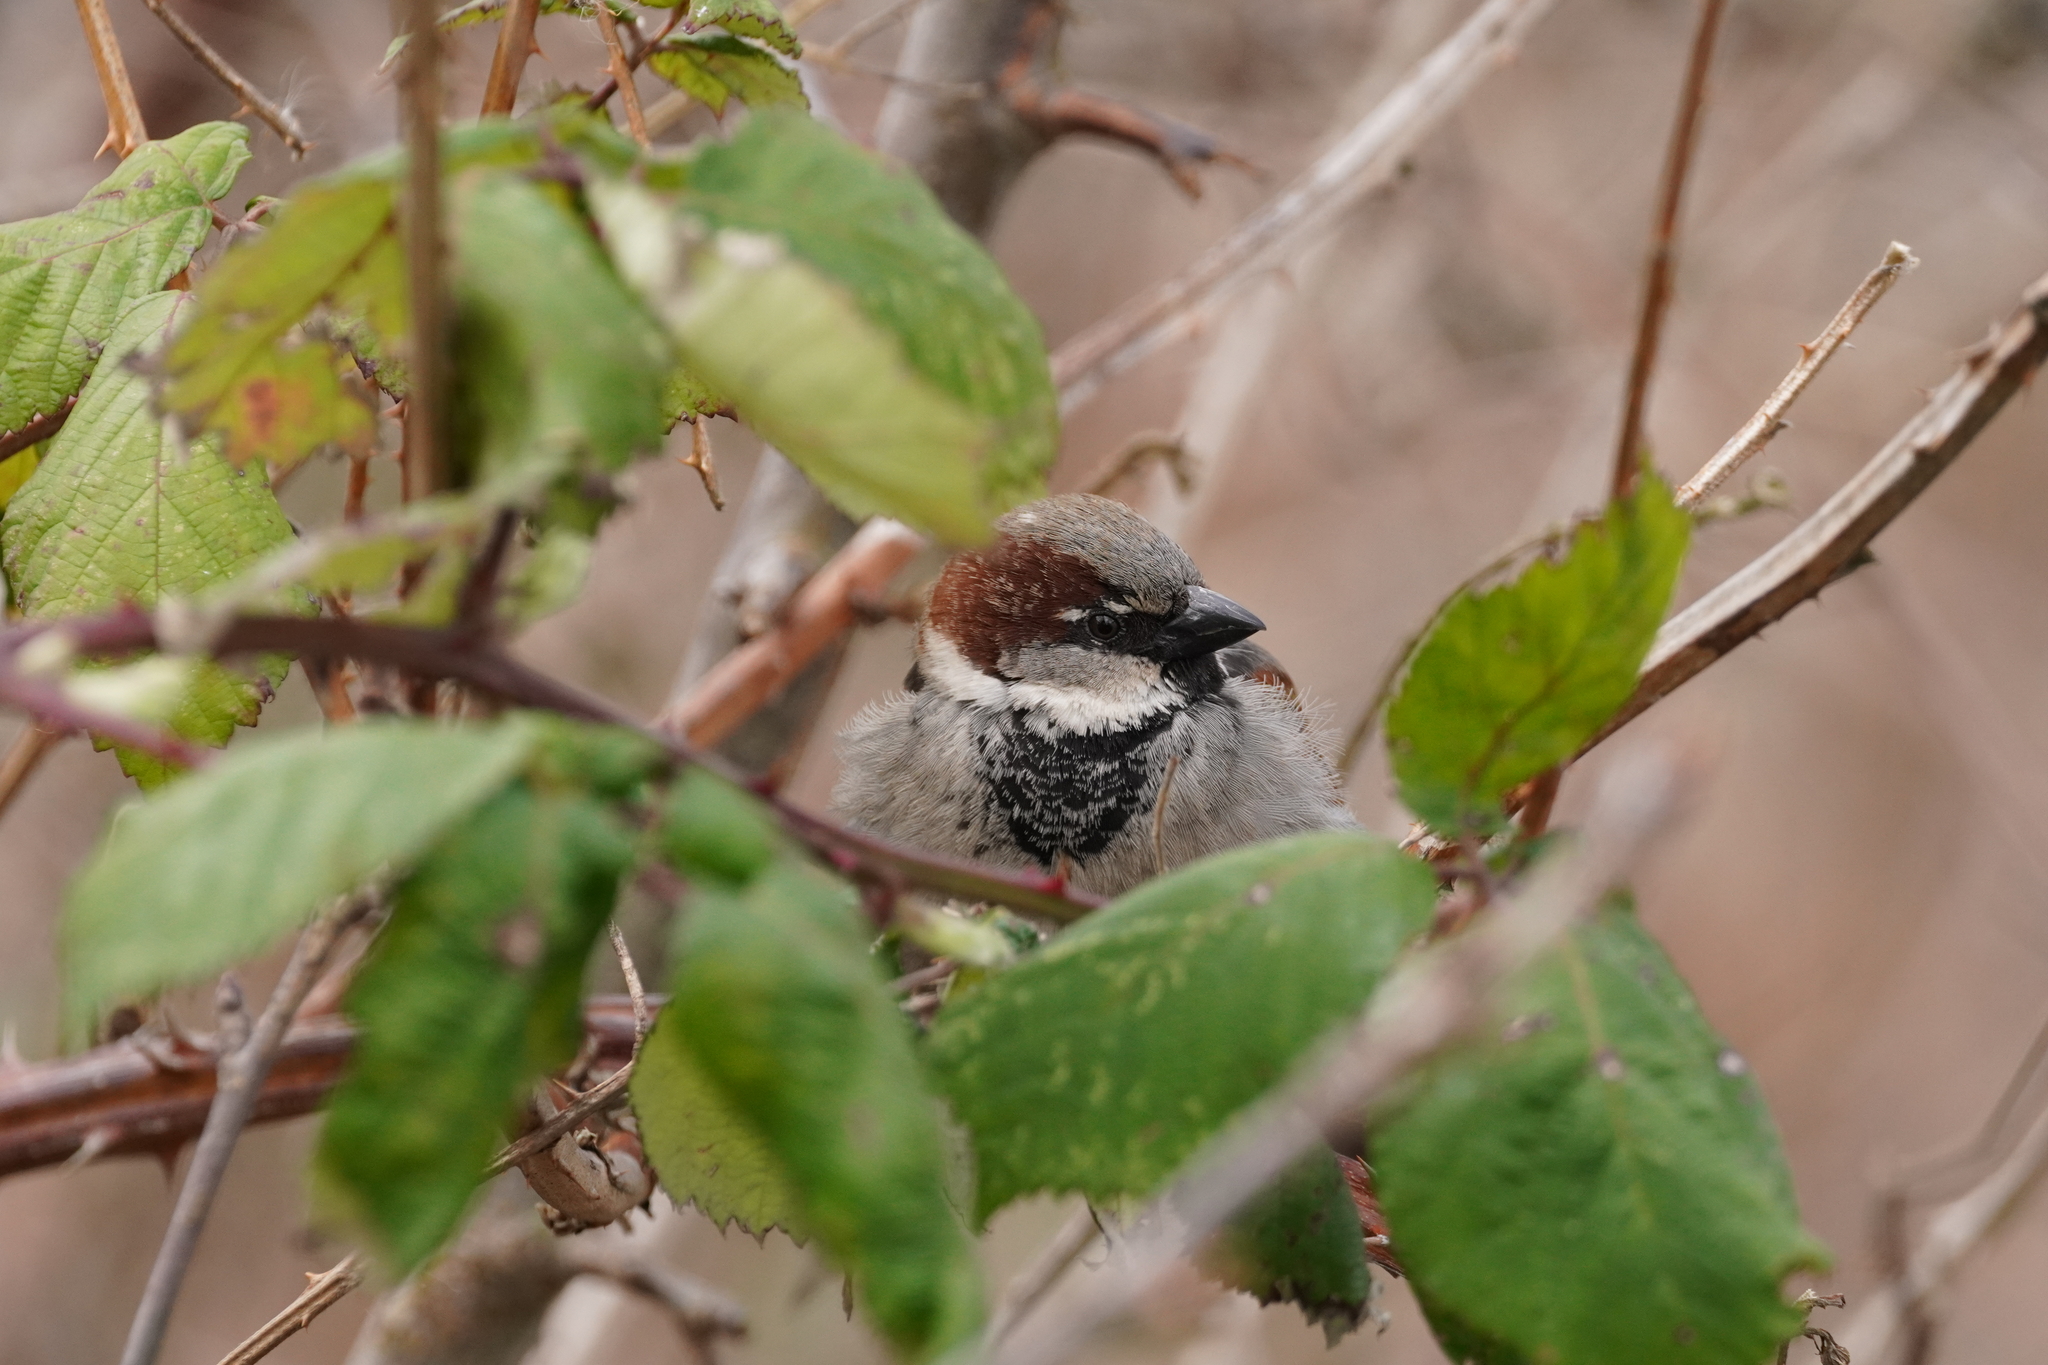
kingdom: Animalia
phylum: Chordata
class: Aves
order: Passeriformes
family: Passeridae
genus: Passer
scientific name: Passer domesticus
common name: House sparrow
